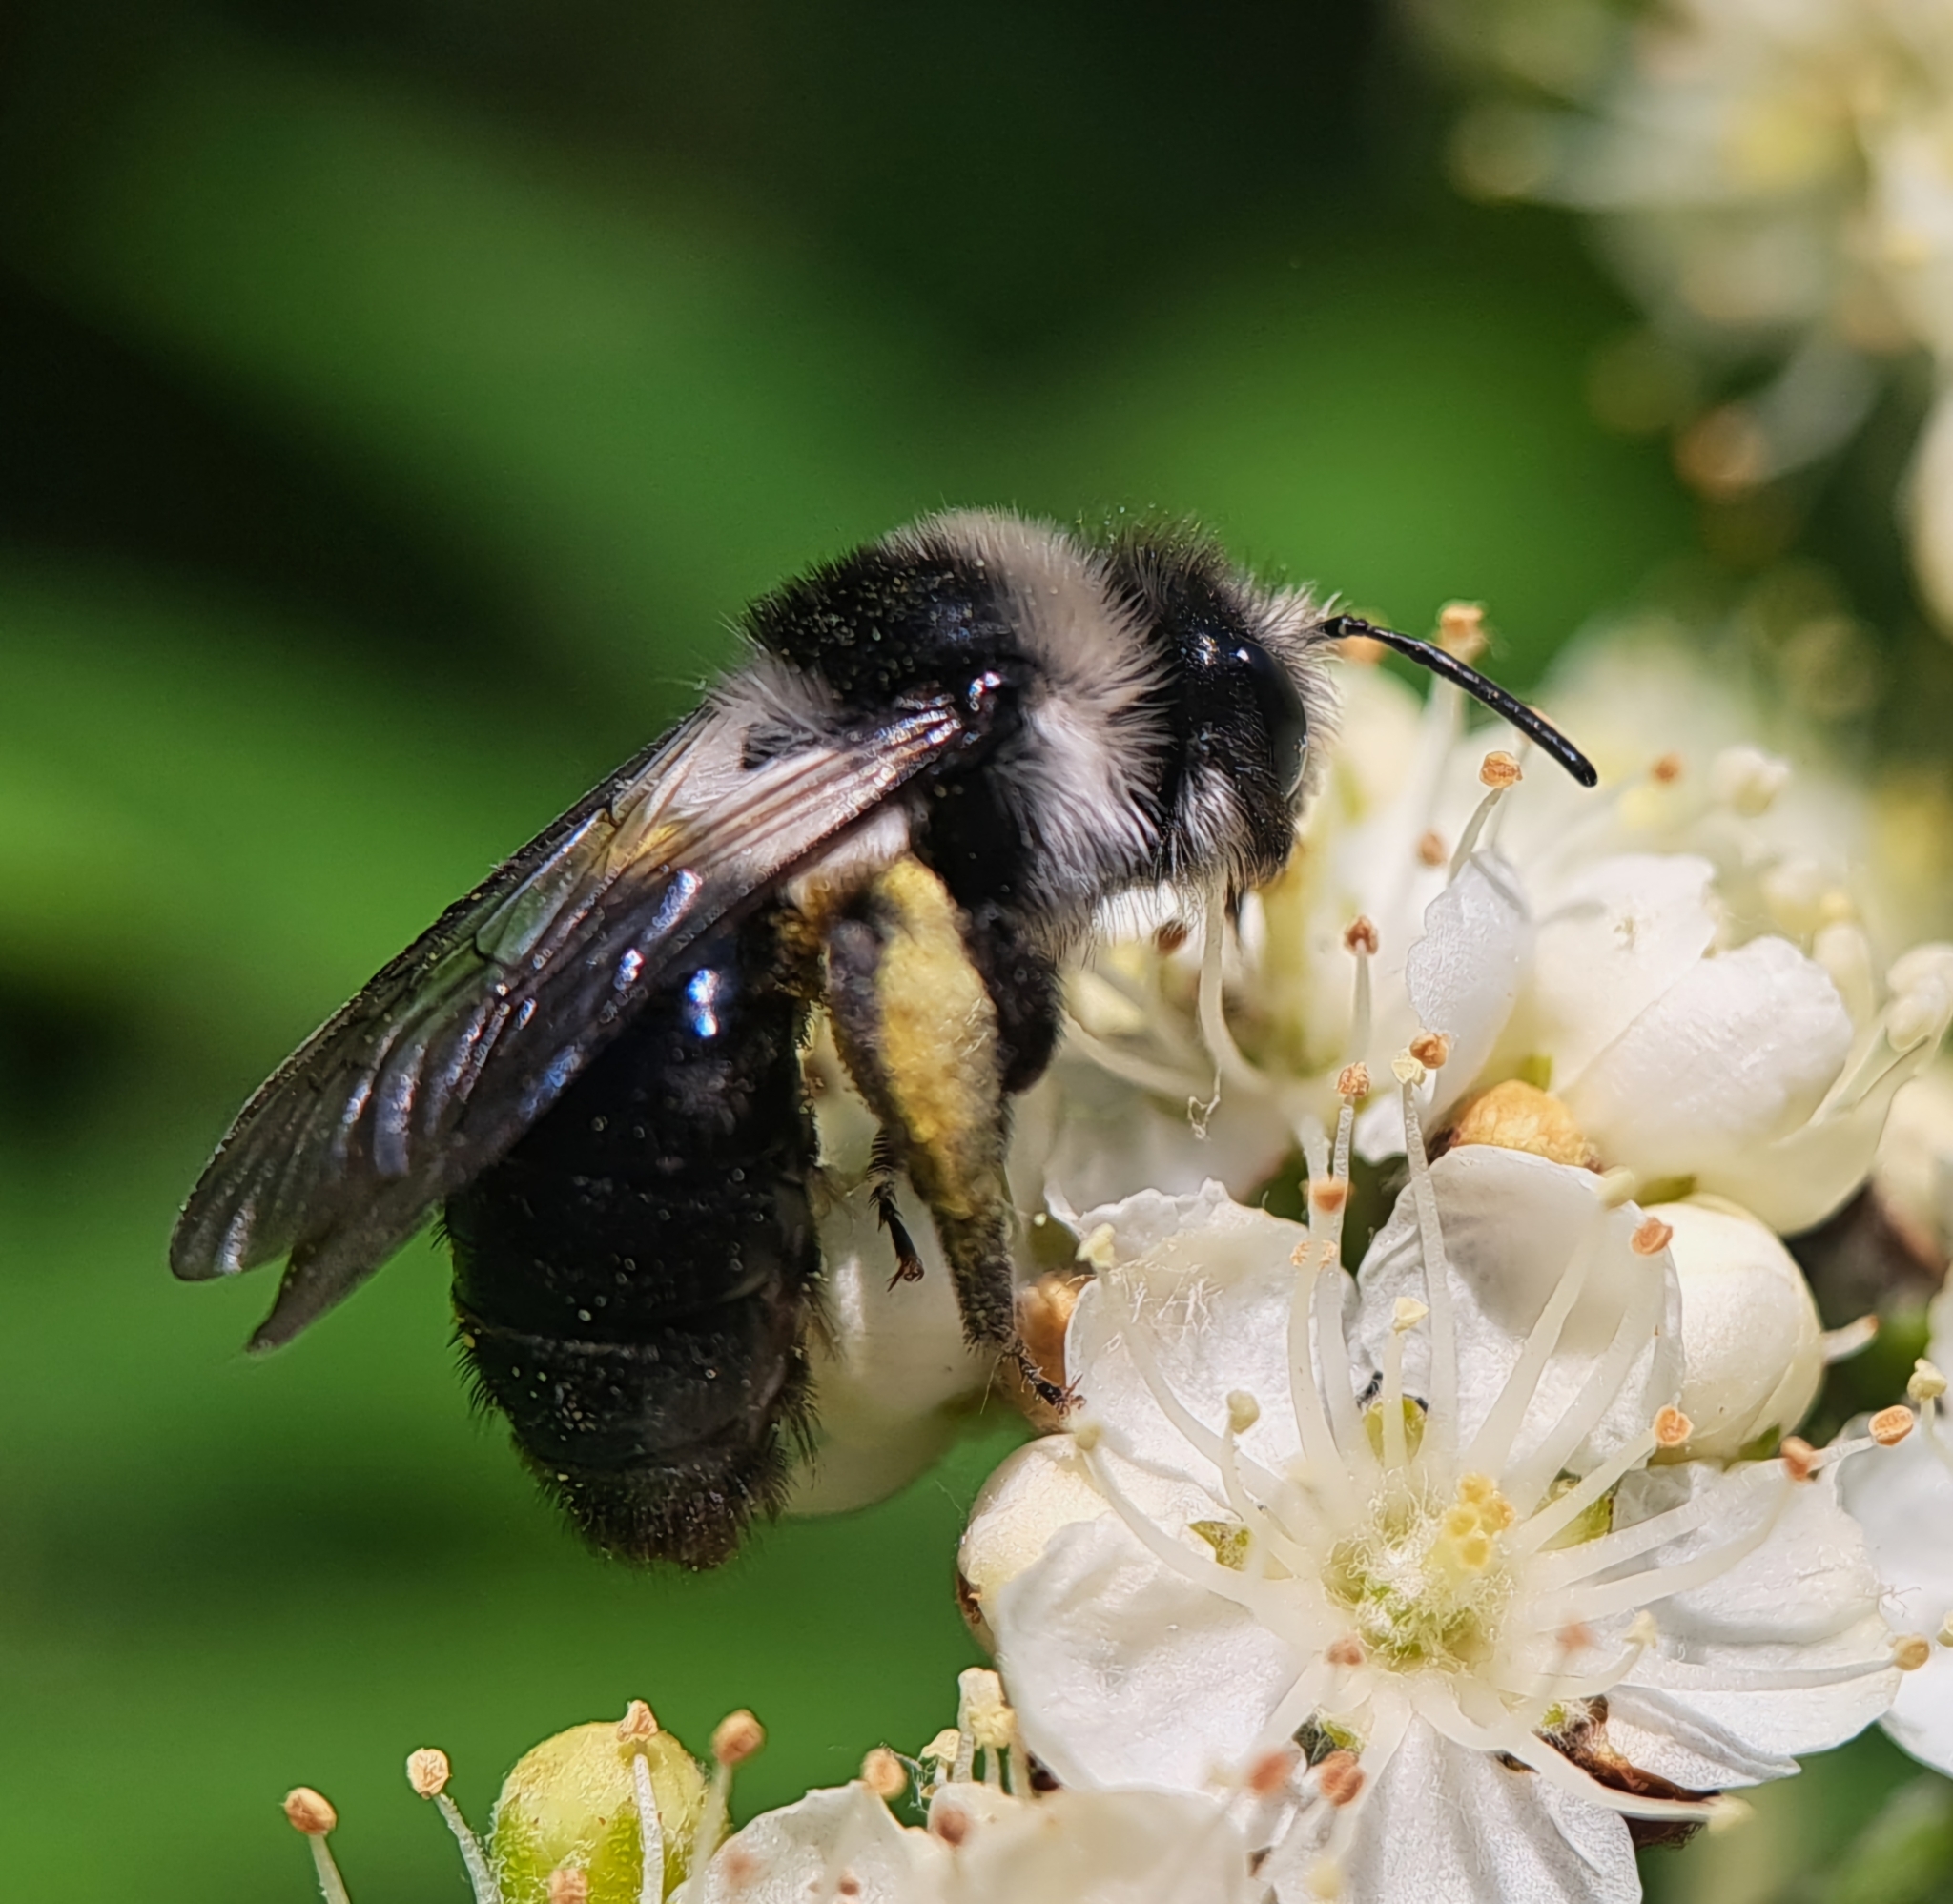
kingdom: Animalia
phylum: Arthropoda
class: Insecta
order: Hymenoptera
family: Andrenidae
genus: Andrena
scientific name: Andrena cineraria
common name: Ashy mining bee
